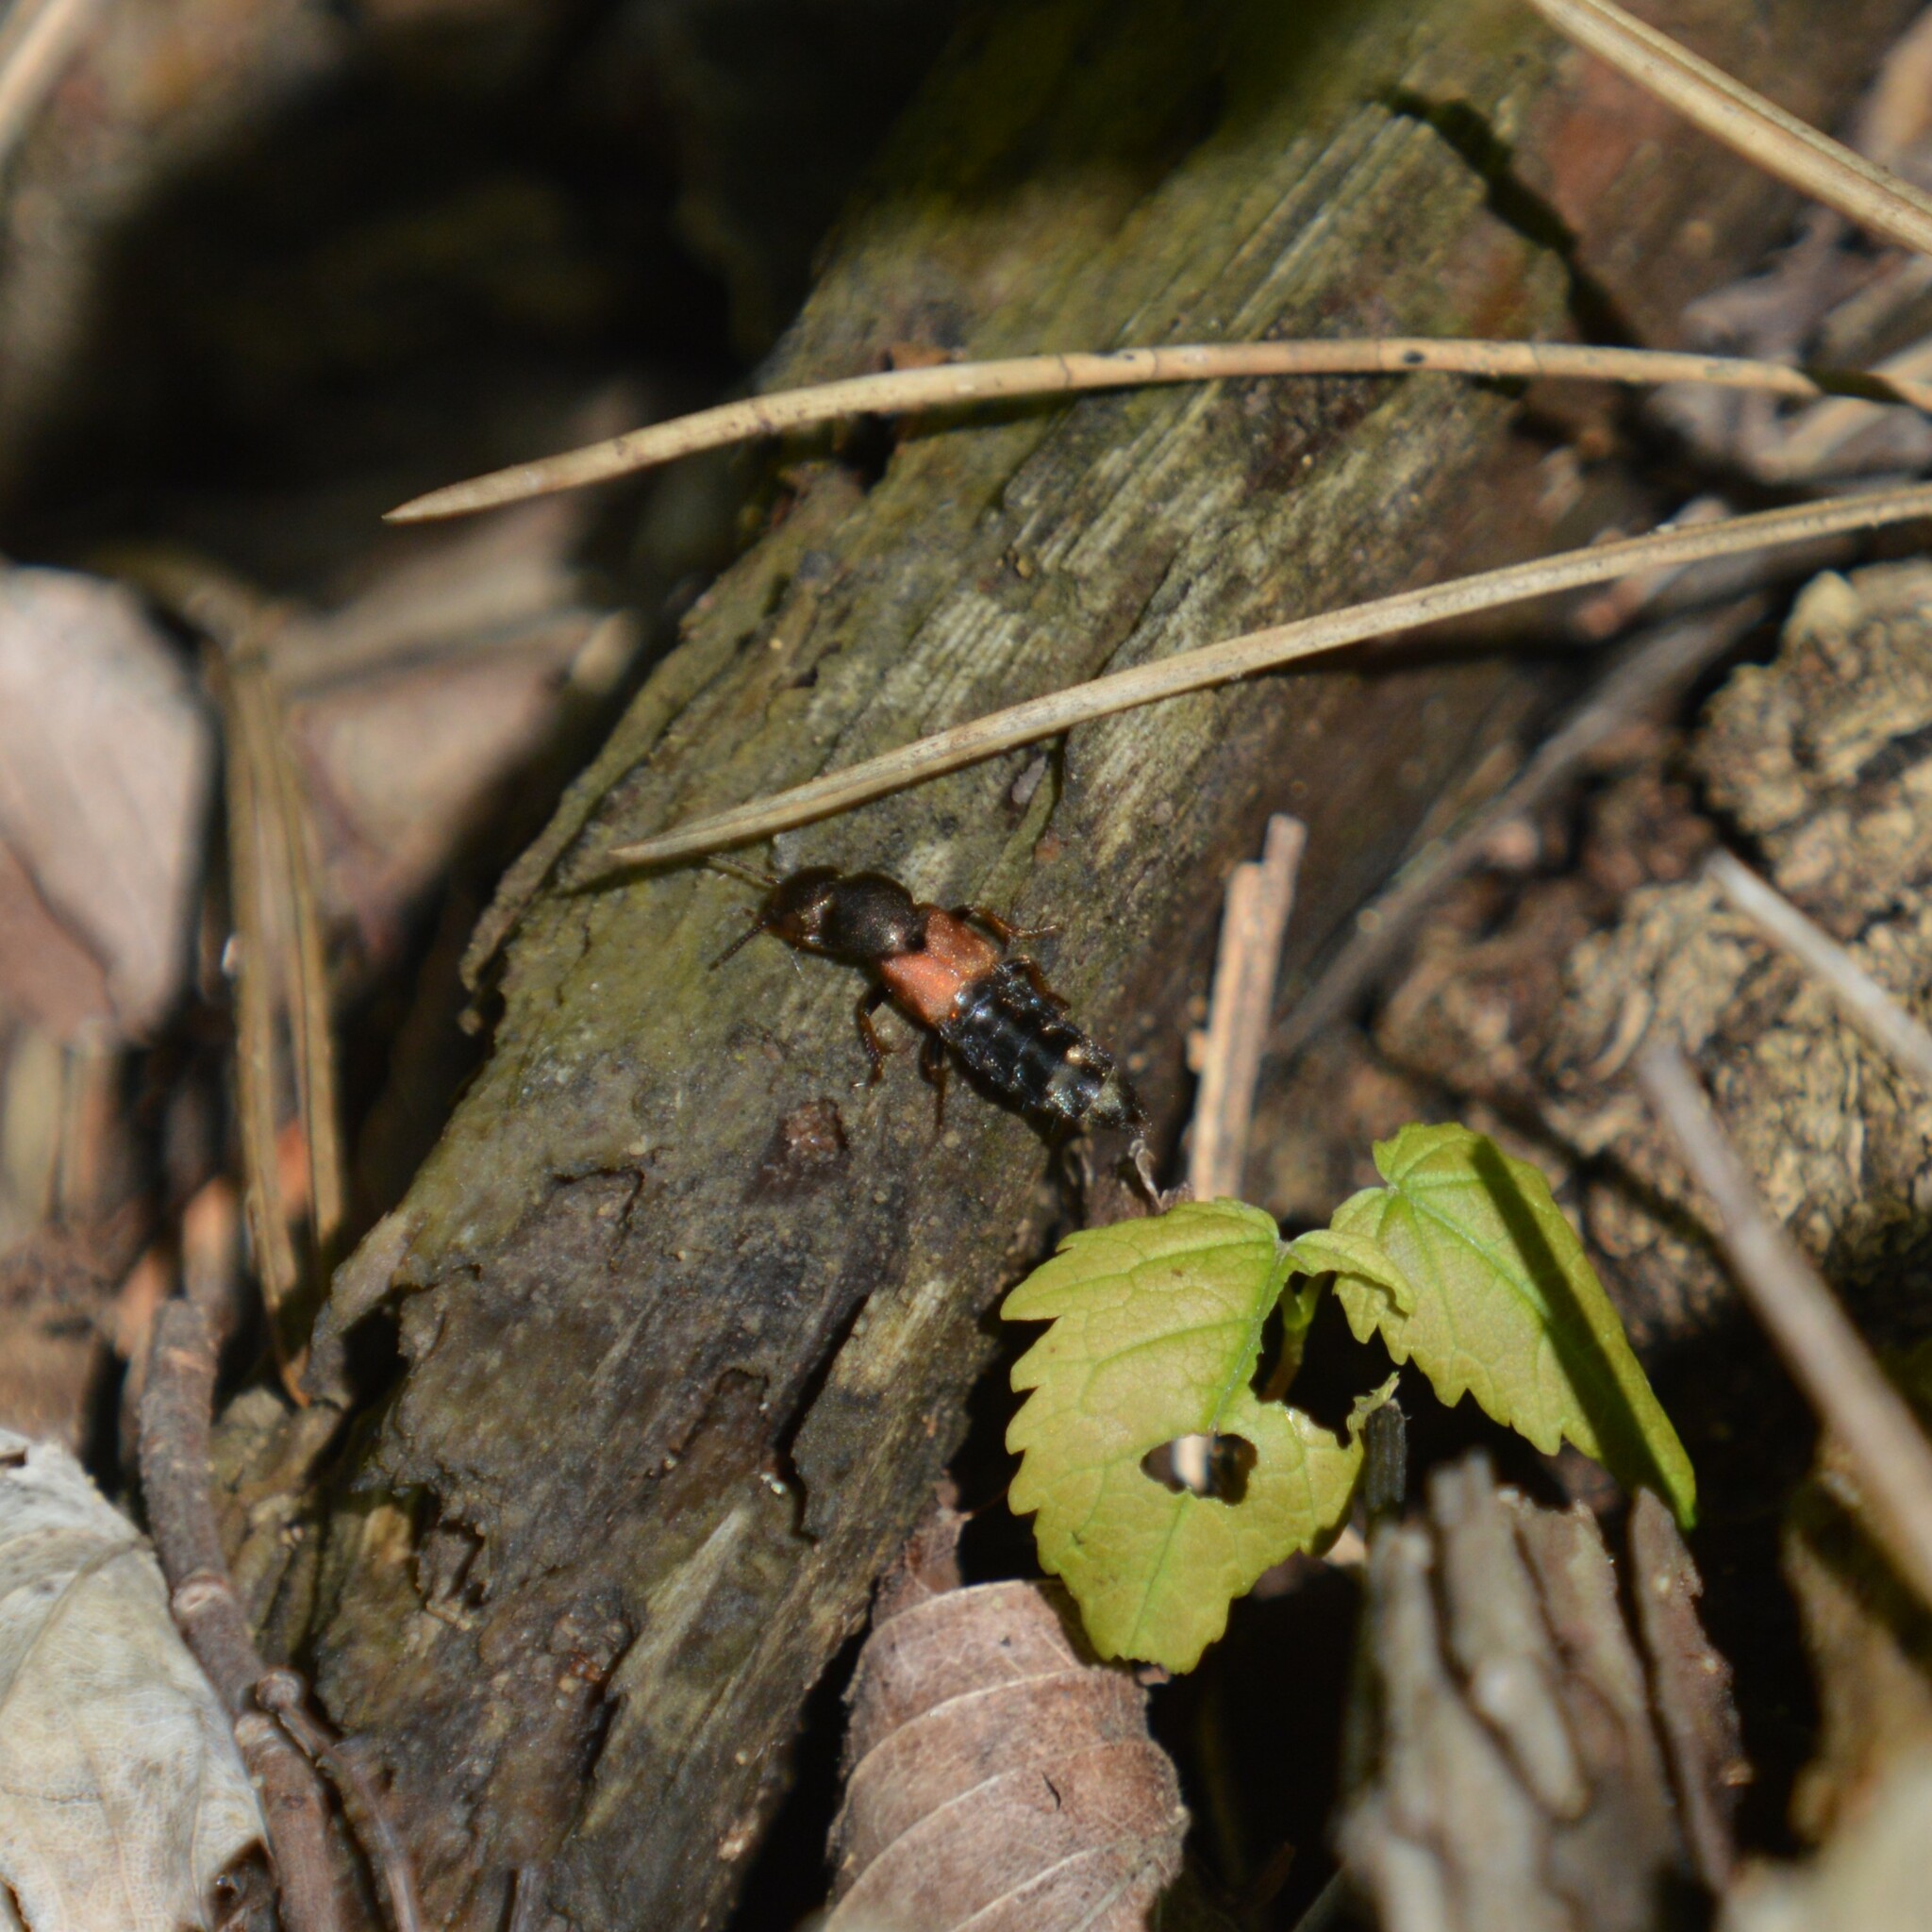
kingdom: Animalia
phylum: Arthropoda
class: Insecta
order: Coleoptera
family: Staphylinidae
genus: Platydracus
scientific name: Platydracus chalcocephalus
